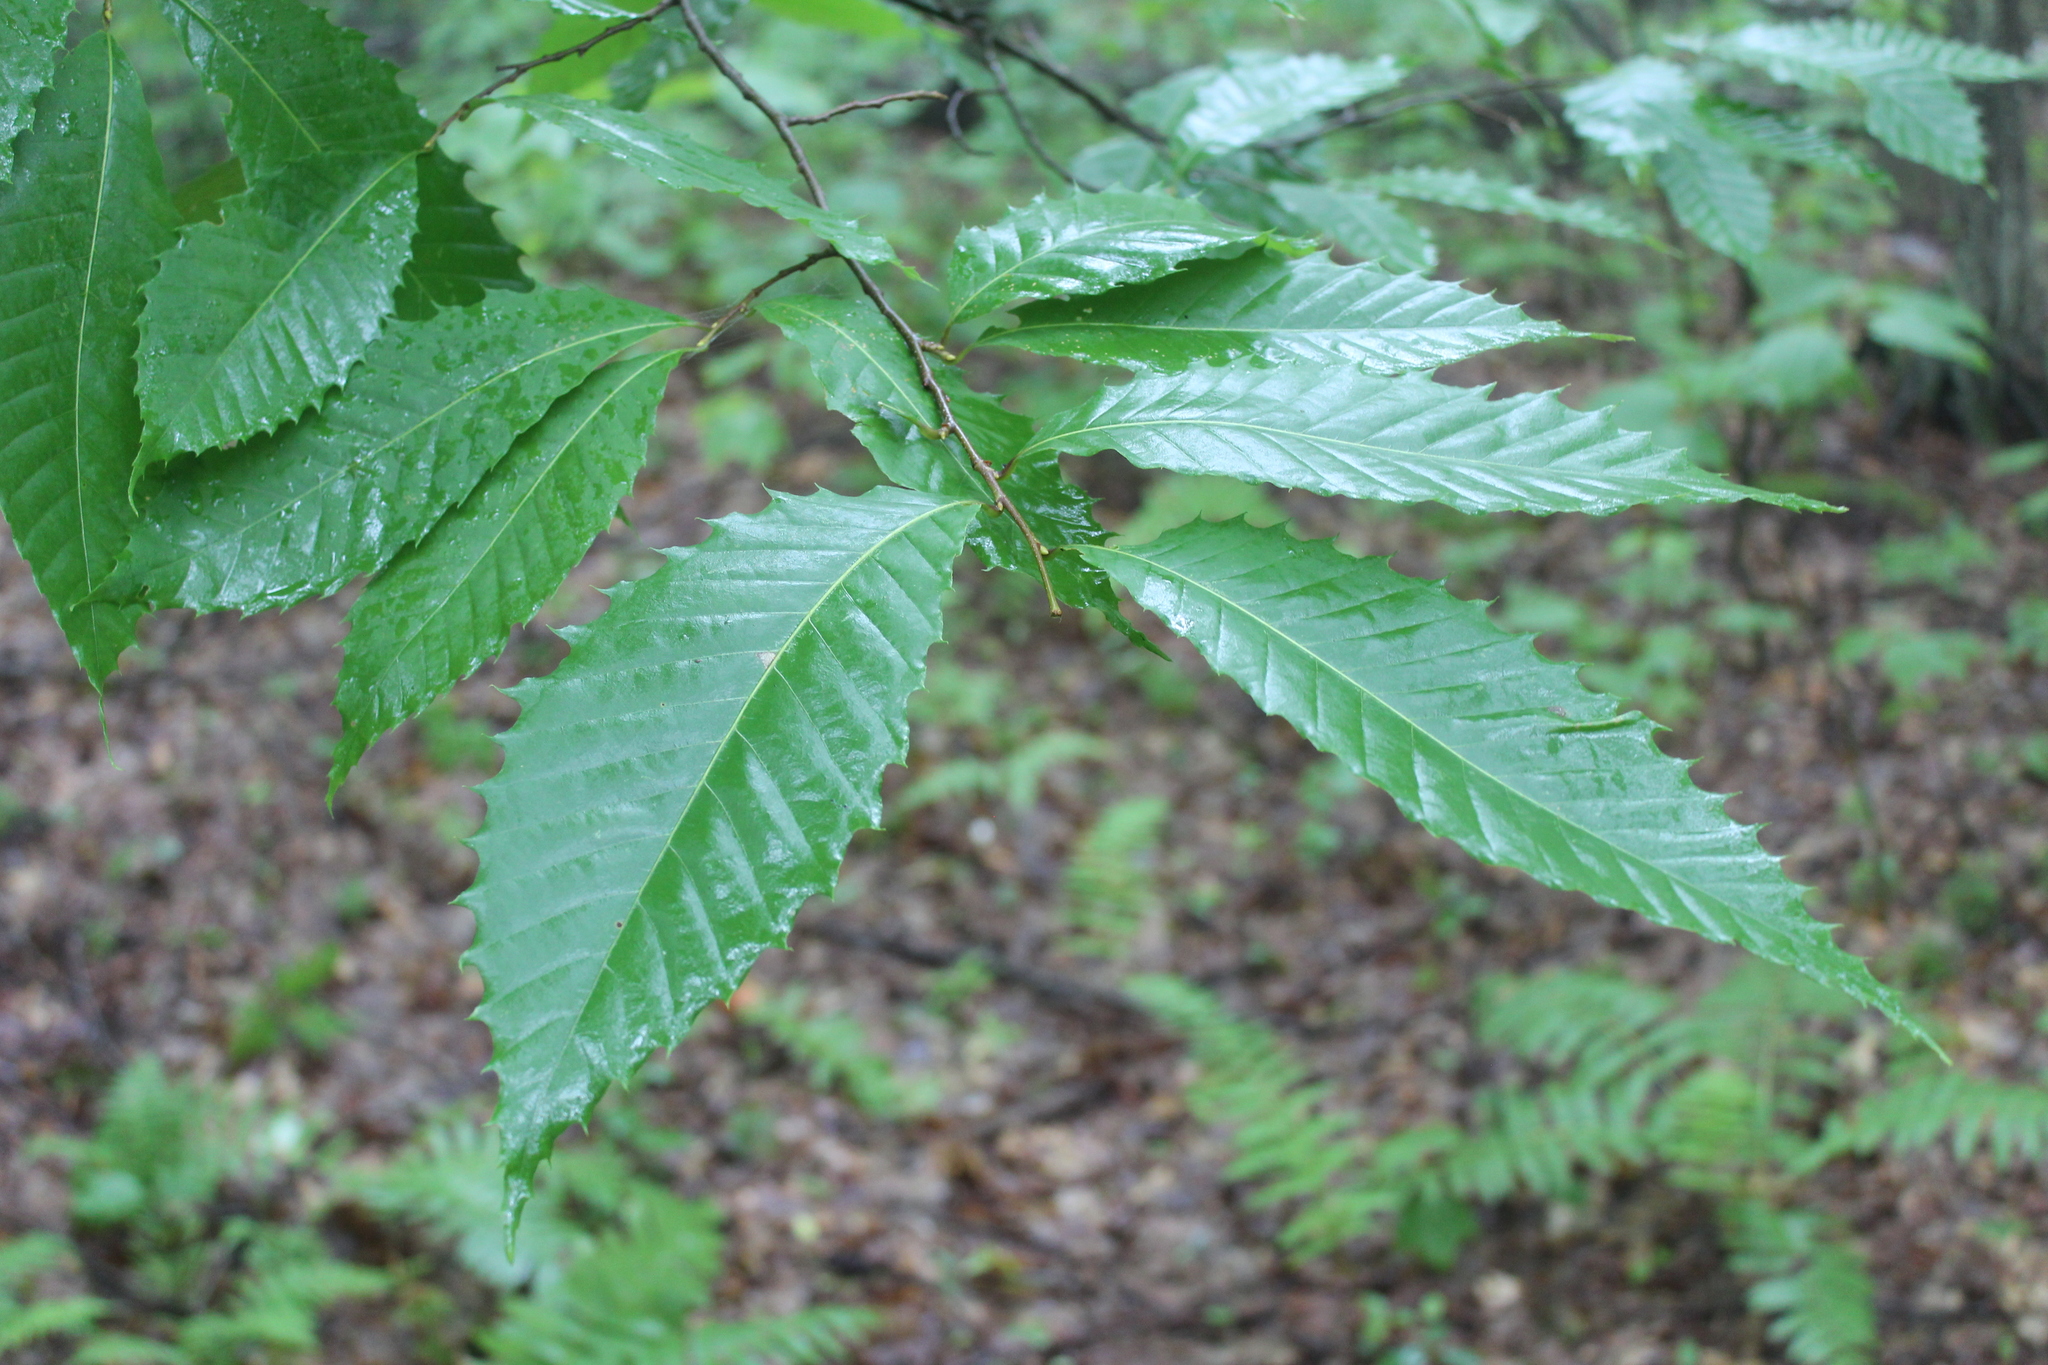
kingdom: Plantae
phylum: Tracheophyta
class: Magnoliopsida
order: Fagales
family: Fagaceae
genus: Castanea
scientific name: Castanea dentata
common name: American chestnut
